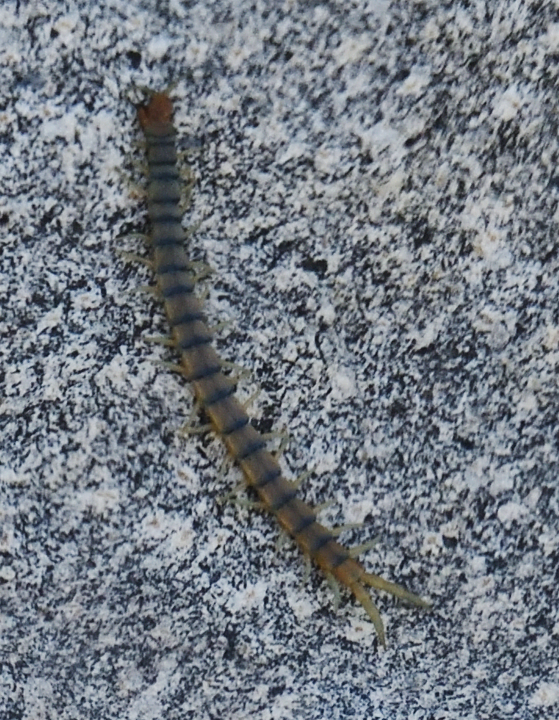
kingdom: Animalia
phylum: Arthropoda
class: Chilopoda
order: Scolopendromorpha
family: Scolopendridae
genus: Scolopendra
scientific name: Scolopendra polymorpha
